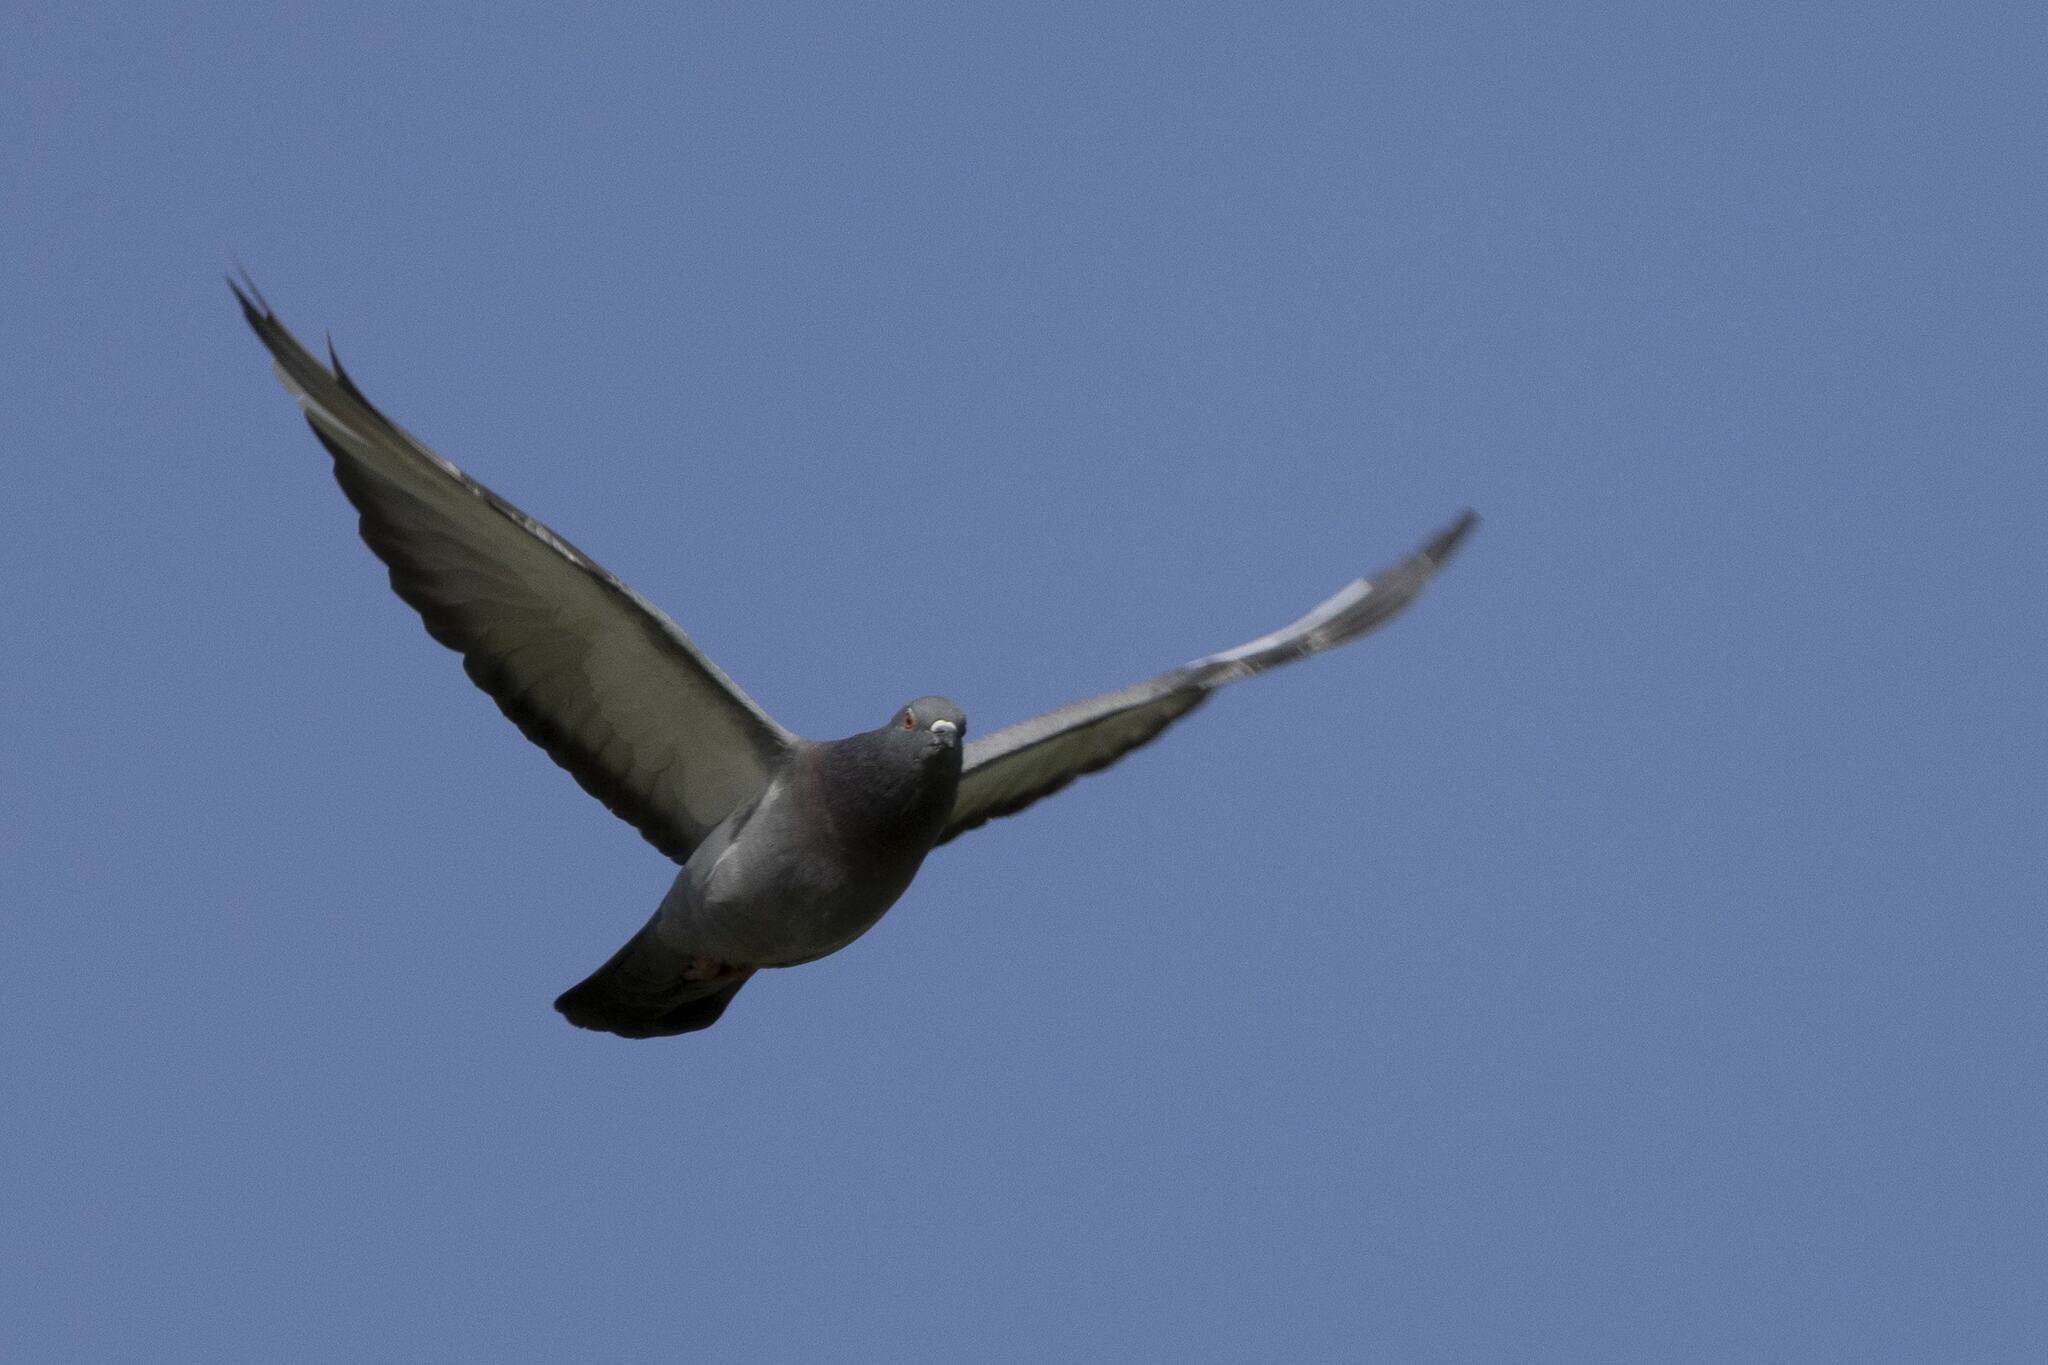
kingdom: Animalia
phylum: Chordata
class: Aves
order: Columbiformes
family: Columbidae
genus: Columba
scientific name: Columba livia
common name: Rock pigeon
